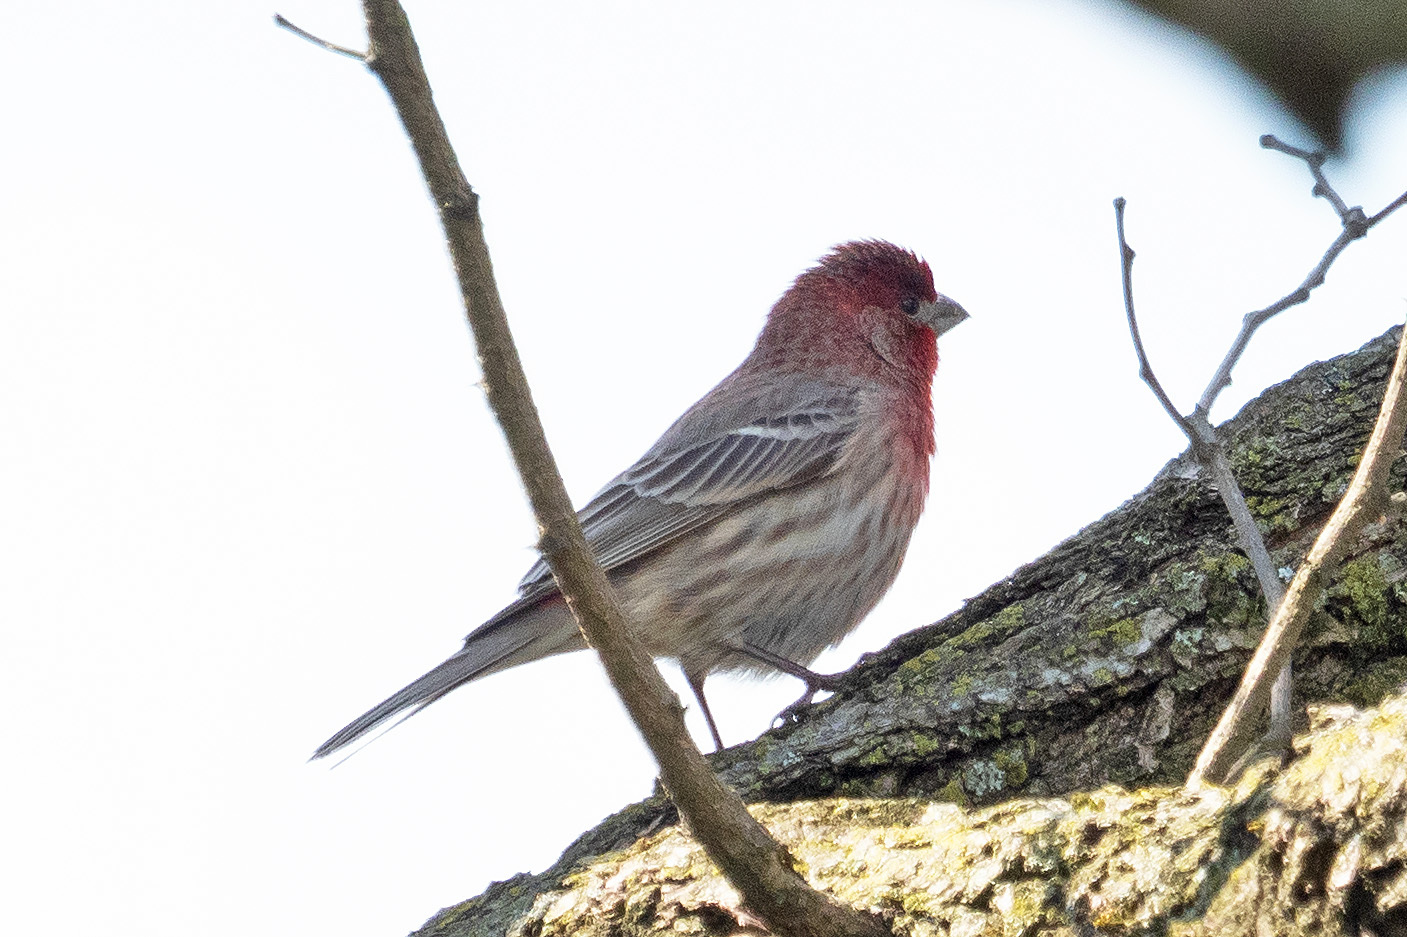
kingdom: Animalia
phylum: Chordata
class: Aves
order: Passeriformes
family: Fringillidae
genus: Haemorhous
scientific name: Haemorhous mexicanus
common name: House finch
